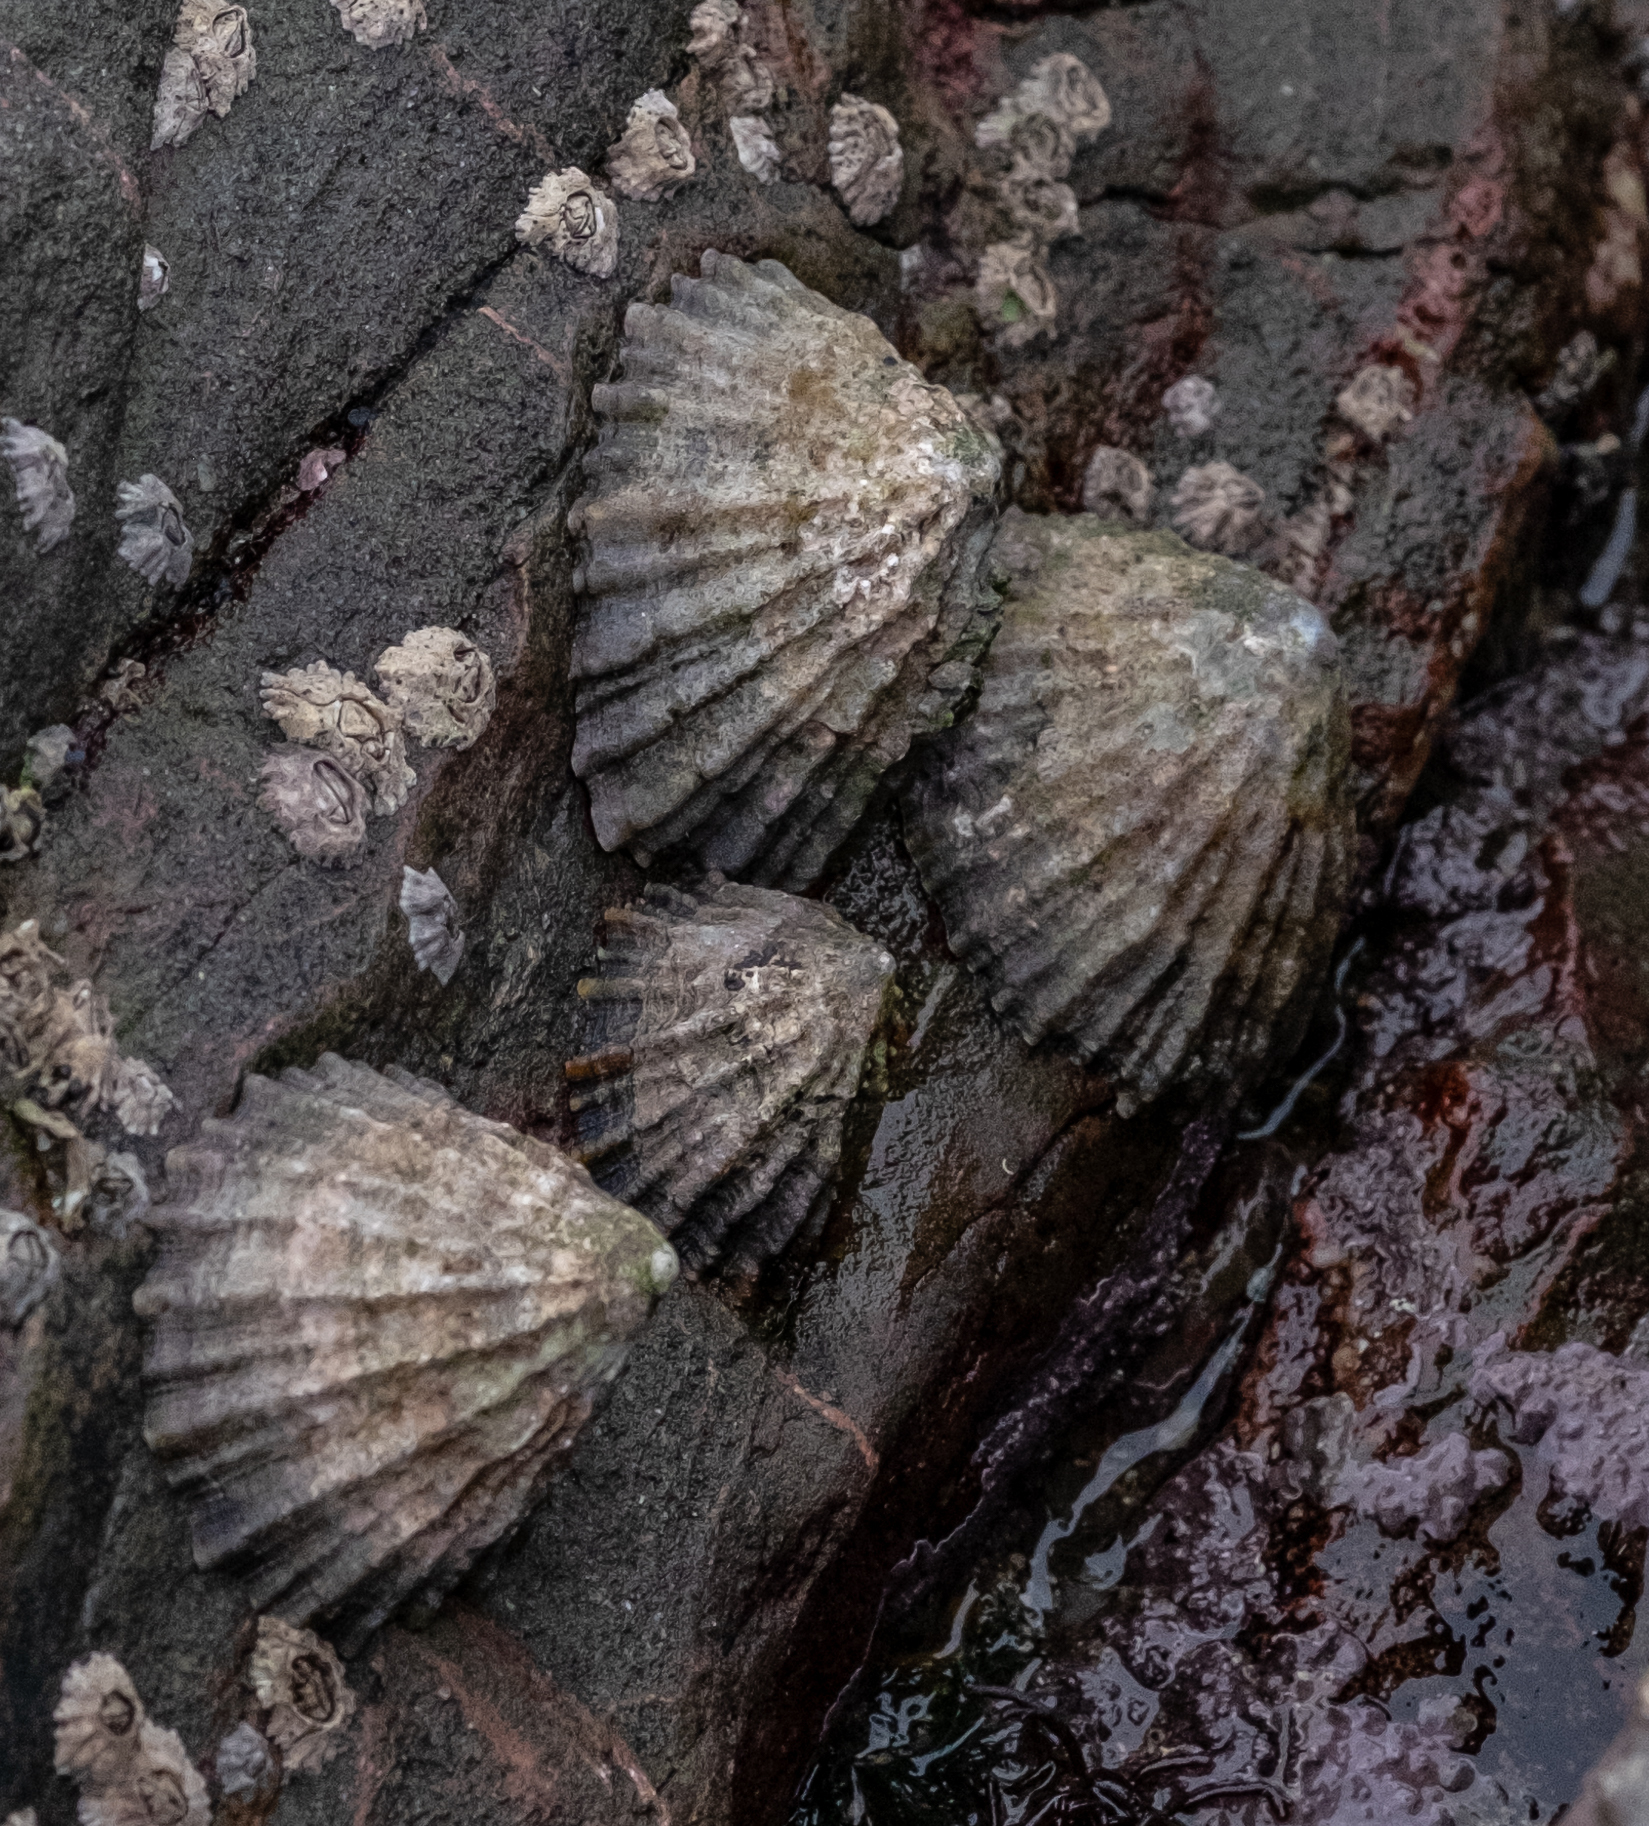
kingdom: Animalia
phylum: Mollusca
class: Gastropoda
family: Patellidae
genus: Patella
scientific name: Patella vulgata
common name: Common limpet
